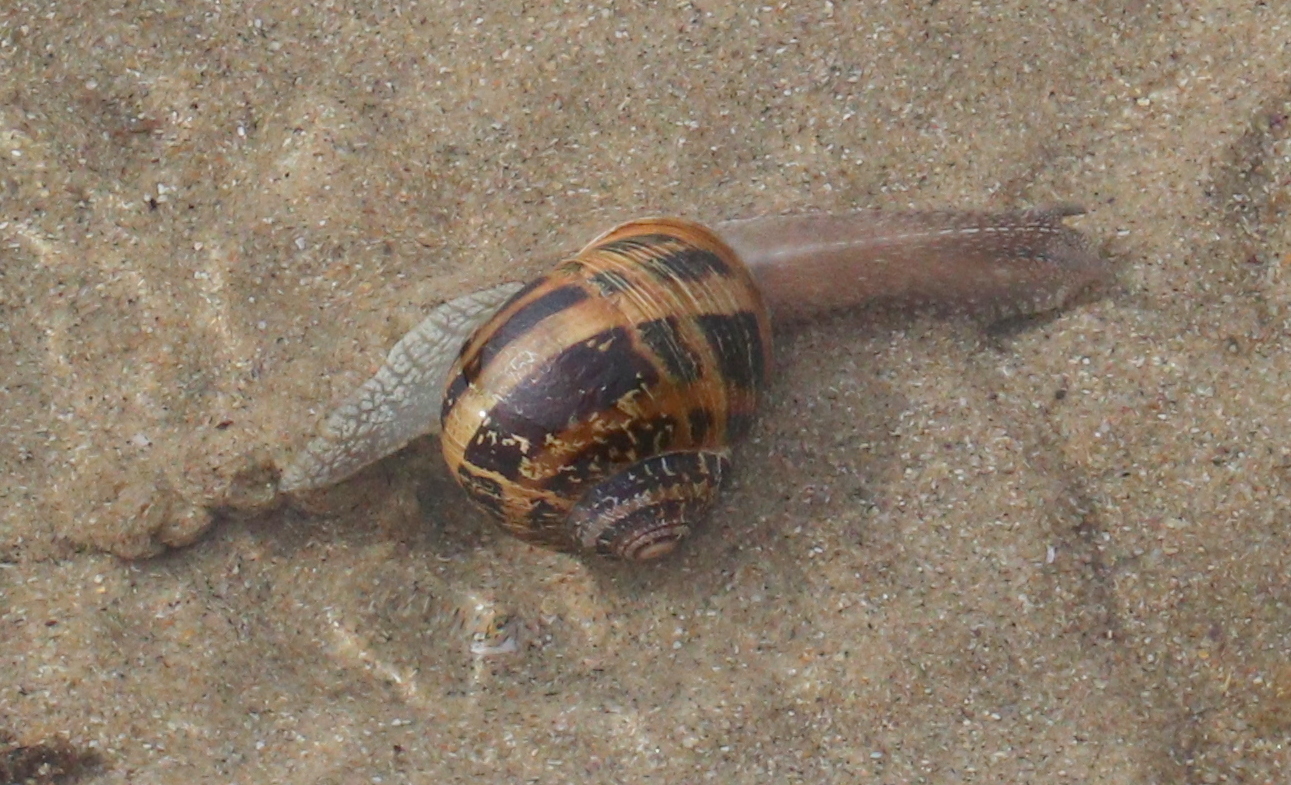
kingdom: Animalia
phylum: Mollusca
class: Gastropoda
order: Stylommatophora
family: Helicidae
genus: Cornu
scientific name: Cornu aspersum
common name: Brown garden snail
